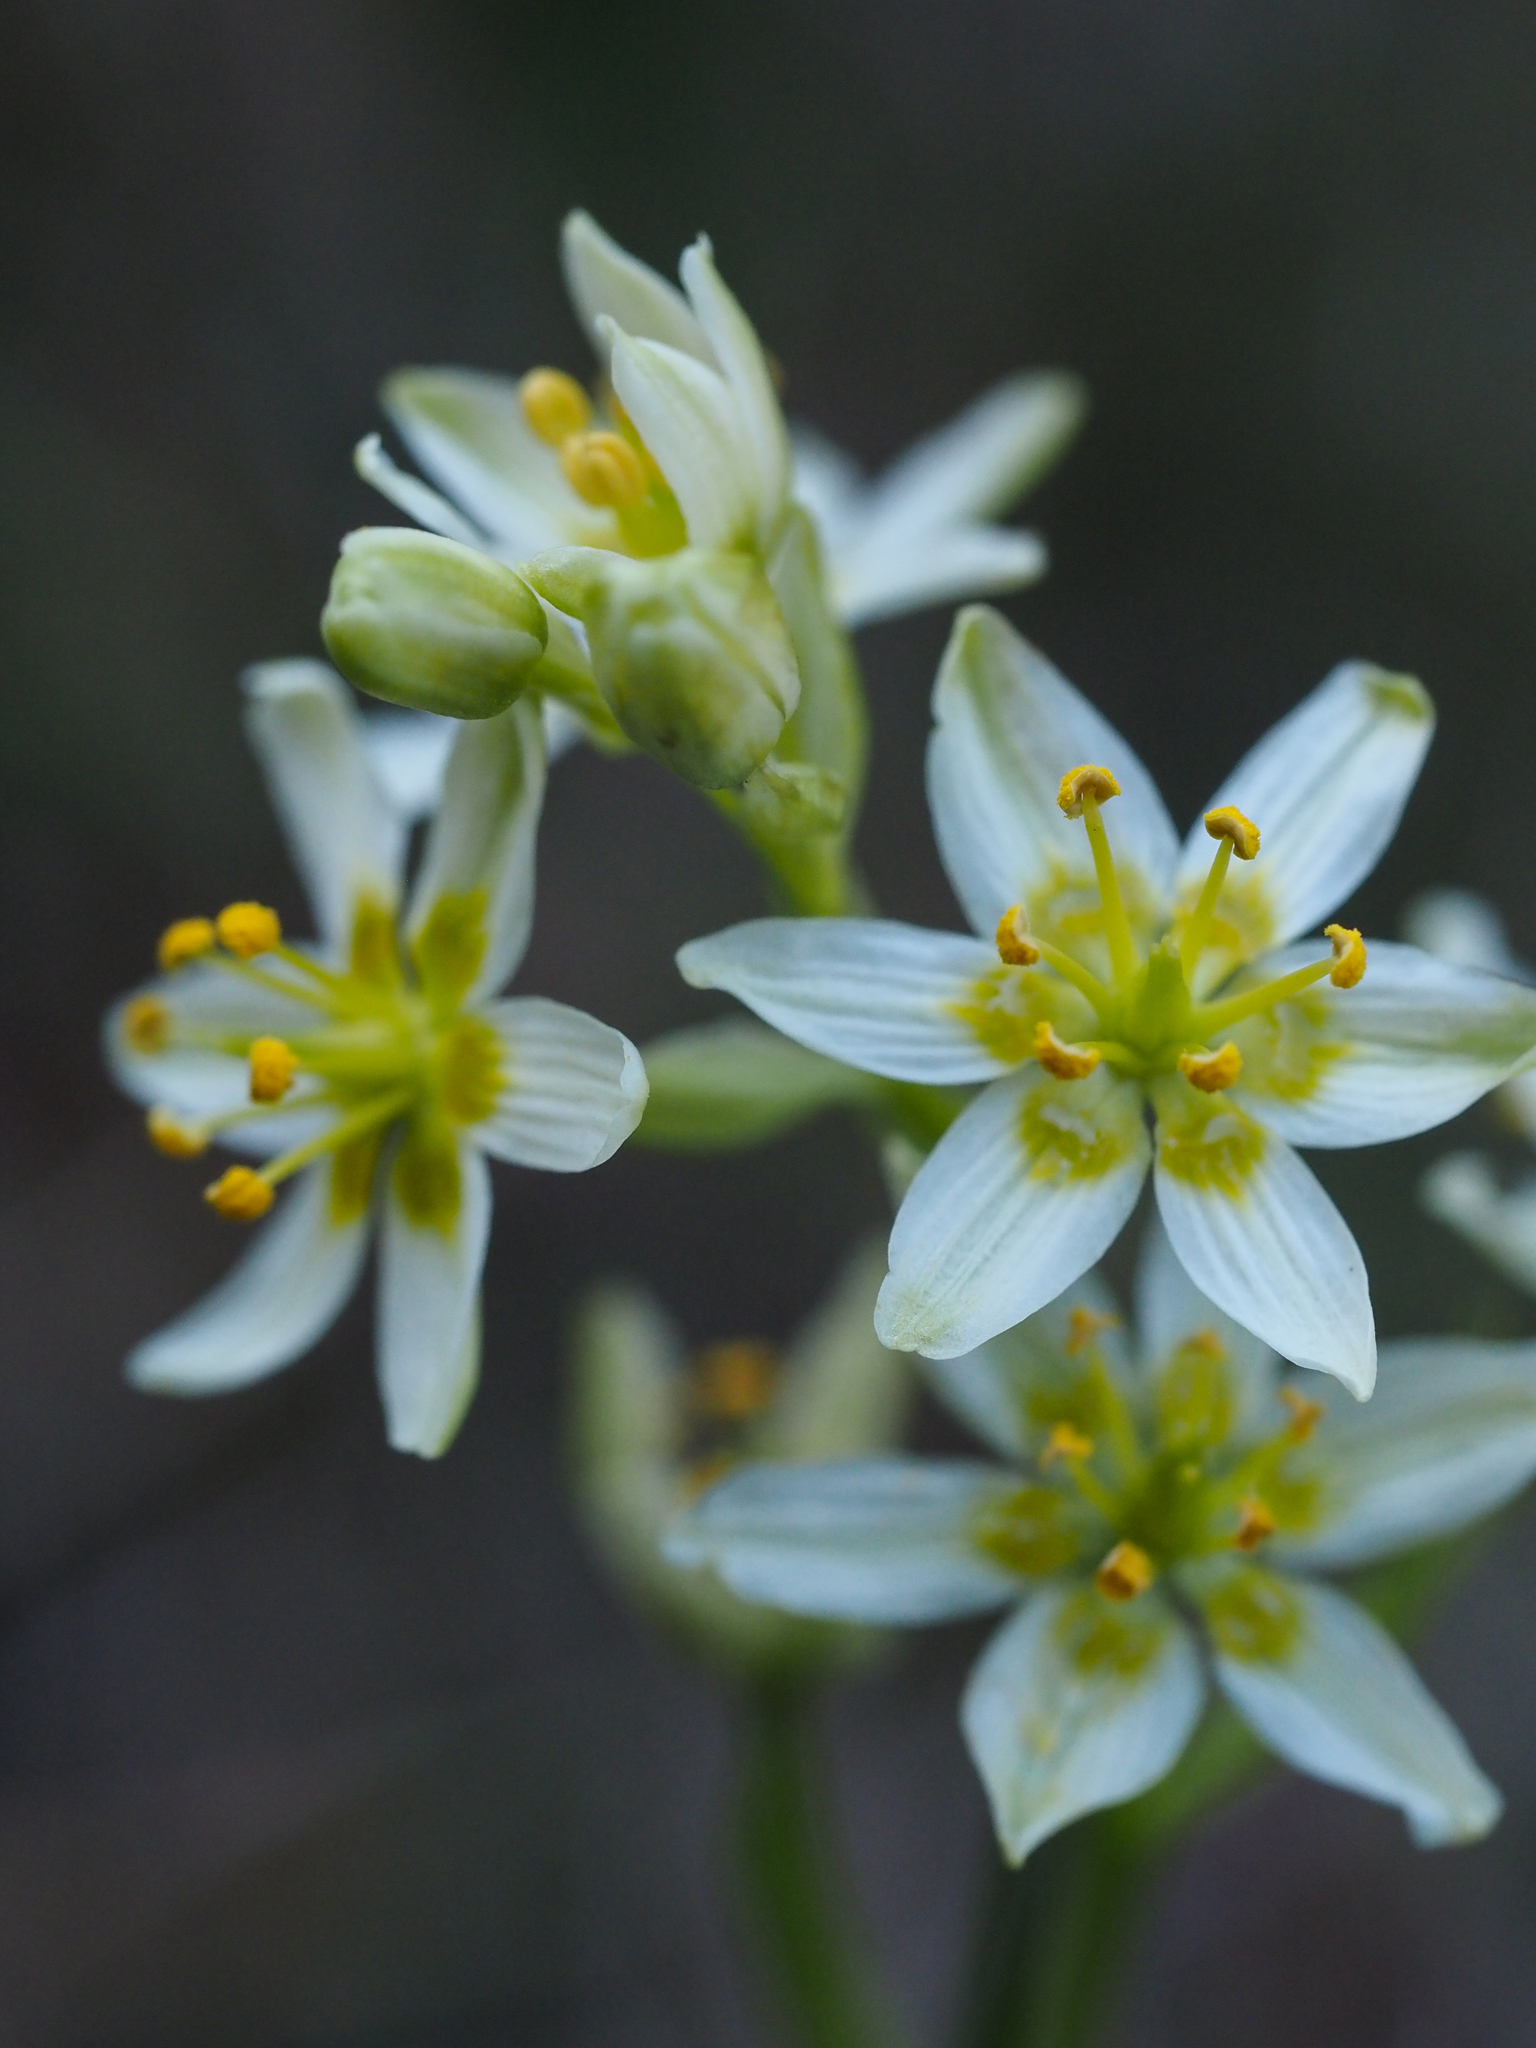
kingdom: Plantae
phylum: Tracheophyta
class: Liliopsida
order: Liliales
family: Melanthiaceae
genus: Toxicoscordion
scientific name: Toxicoscordion fremontii
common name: Fremont's death camas
